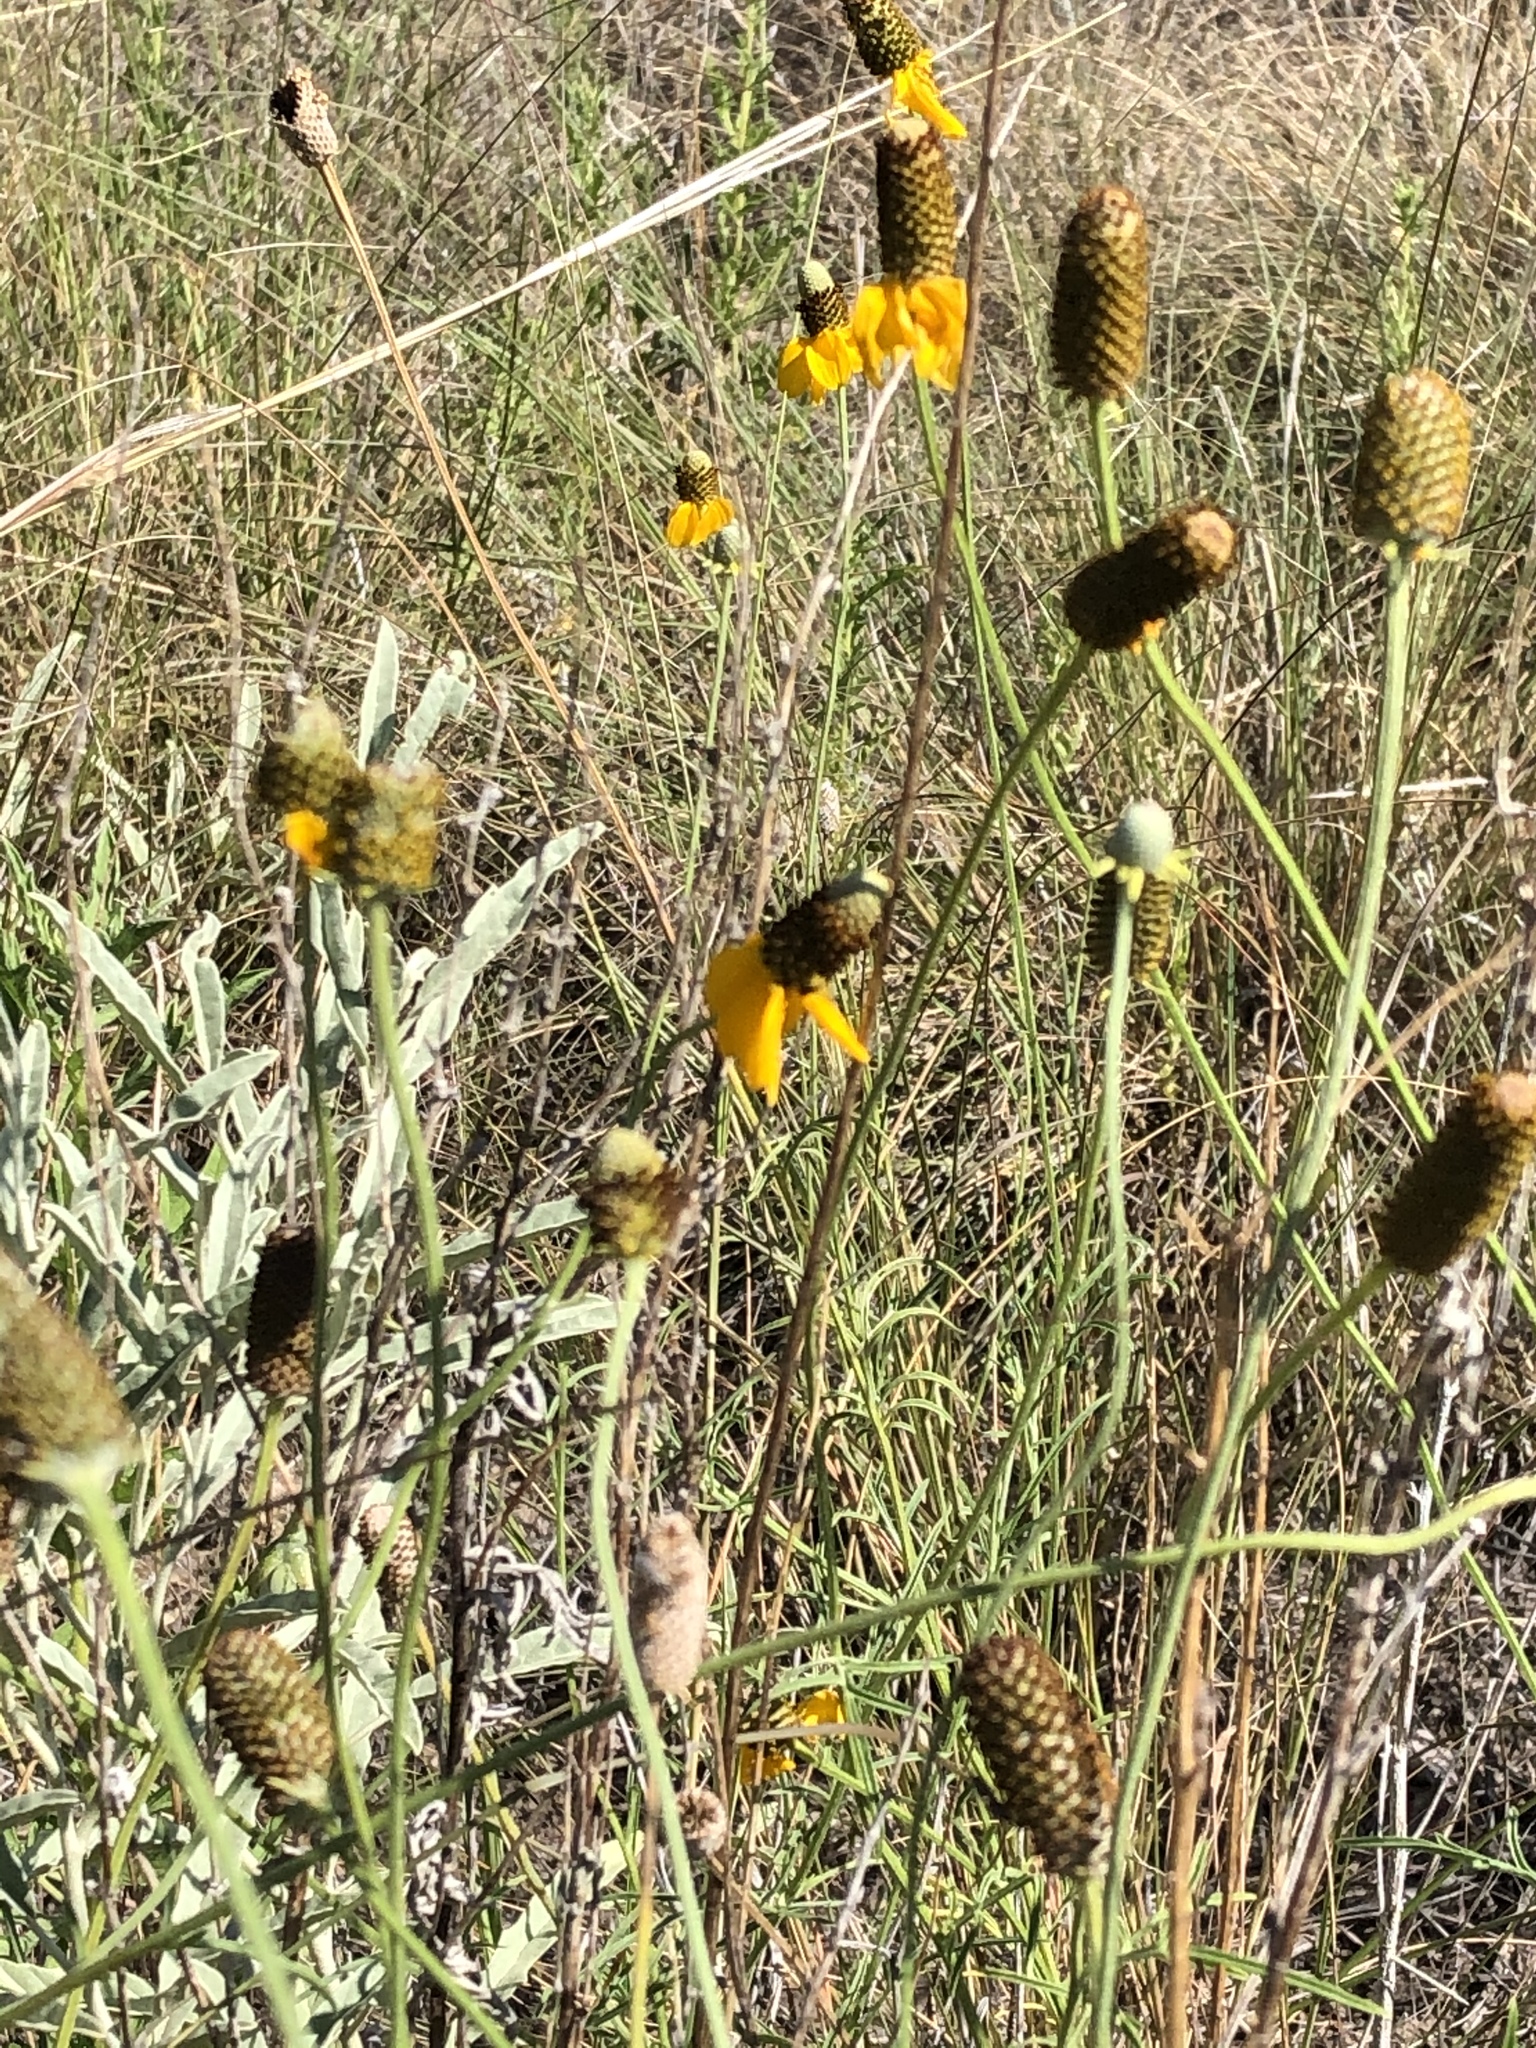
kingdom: Plantae
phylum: Tracheophyta
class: Magnoliopsida
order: Asterales
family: Asteraceae
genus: Ratibida
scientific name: Ratibida columnifera
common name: Prairie coneflower
